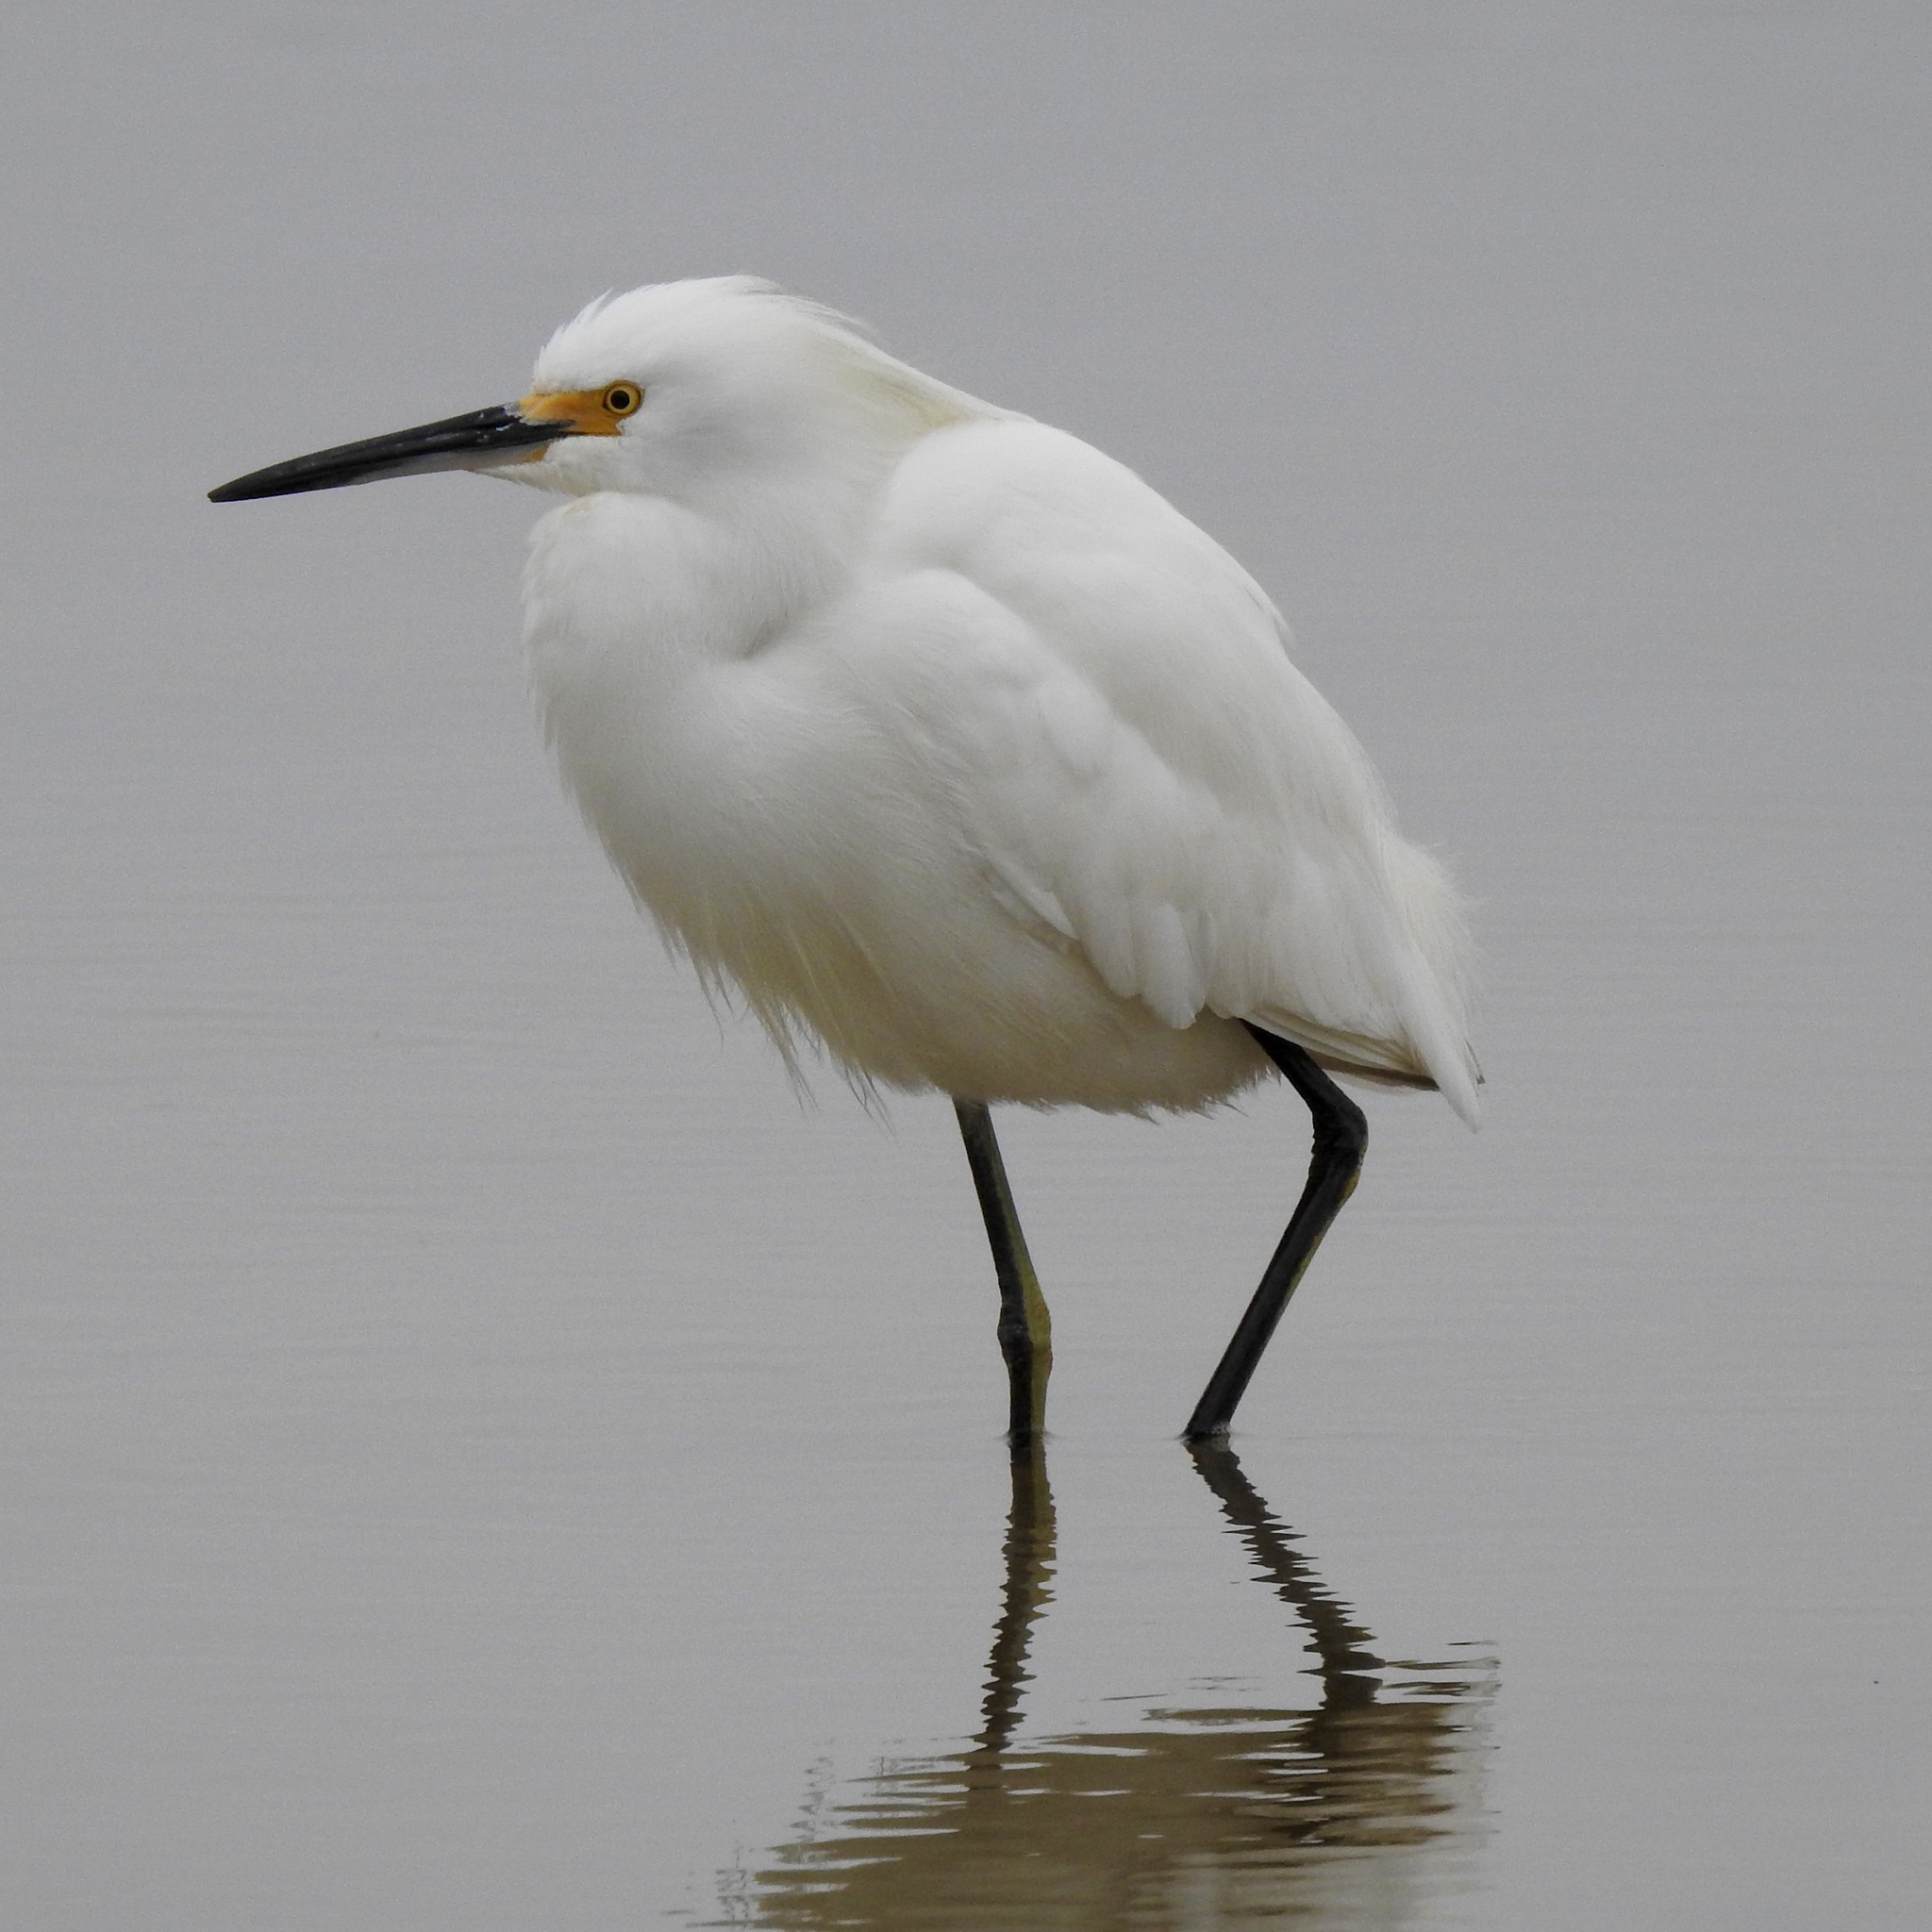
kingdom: Animalia
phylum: Chordata
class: Aves
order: Pelecaniformes
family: Ardeidae
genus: Egretta
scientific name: Egretta thula
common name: Snowy egret
